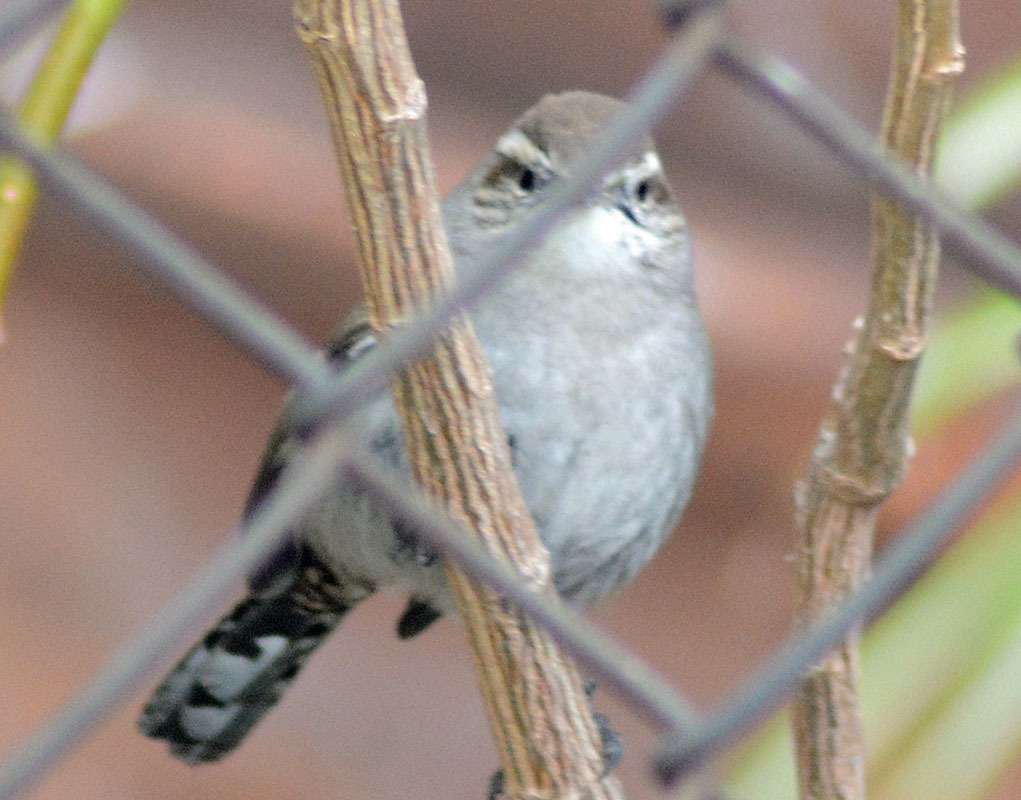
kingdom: Animalia
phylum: Chordata
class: Aves
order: Passeriformes
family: Troglodytidae
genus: Thryomanes
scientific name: Thryomanes bewickii
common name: Bewick's wren
